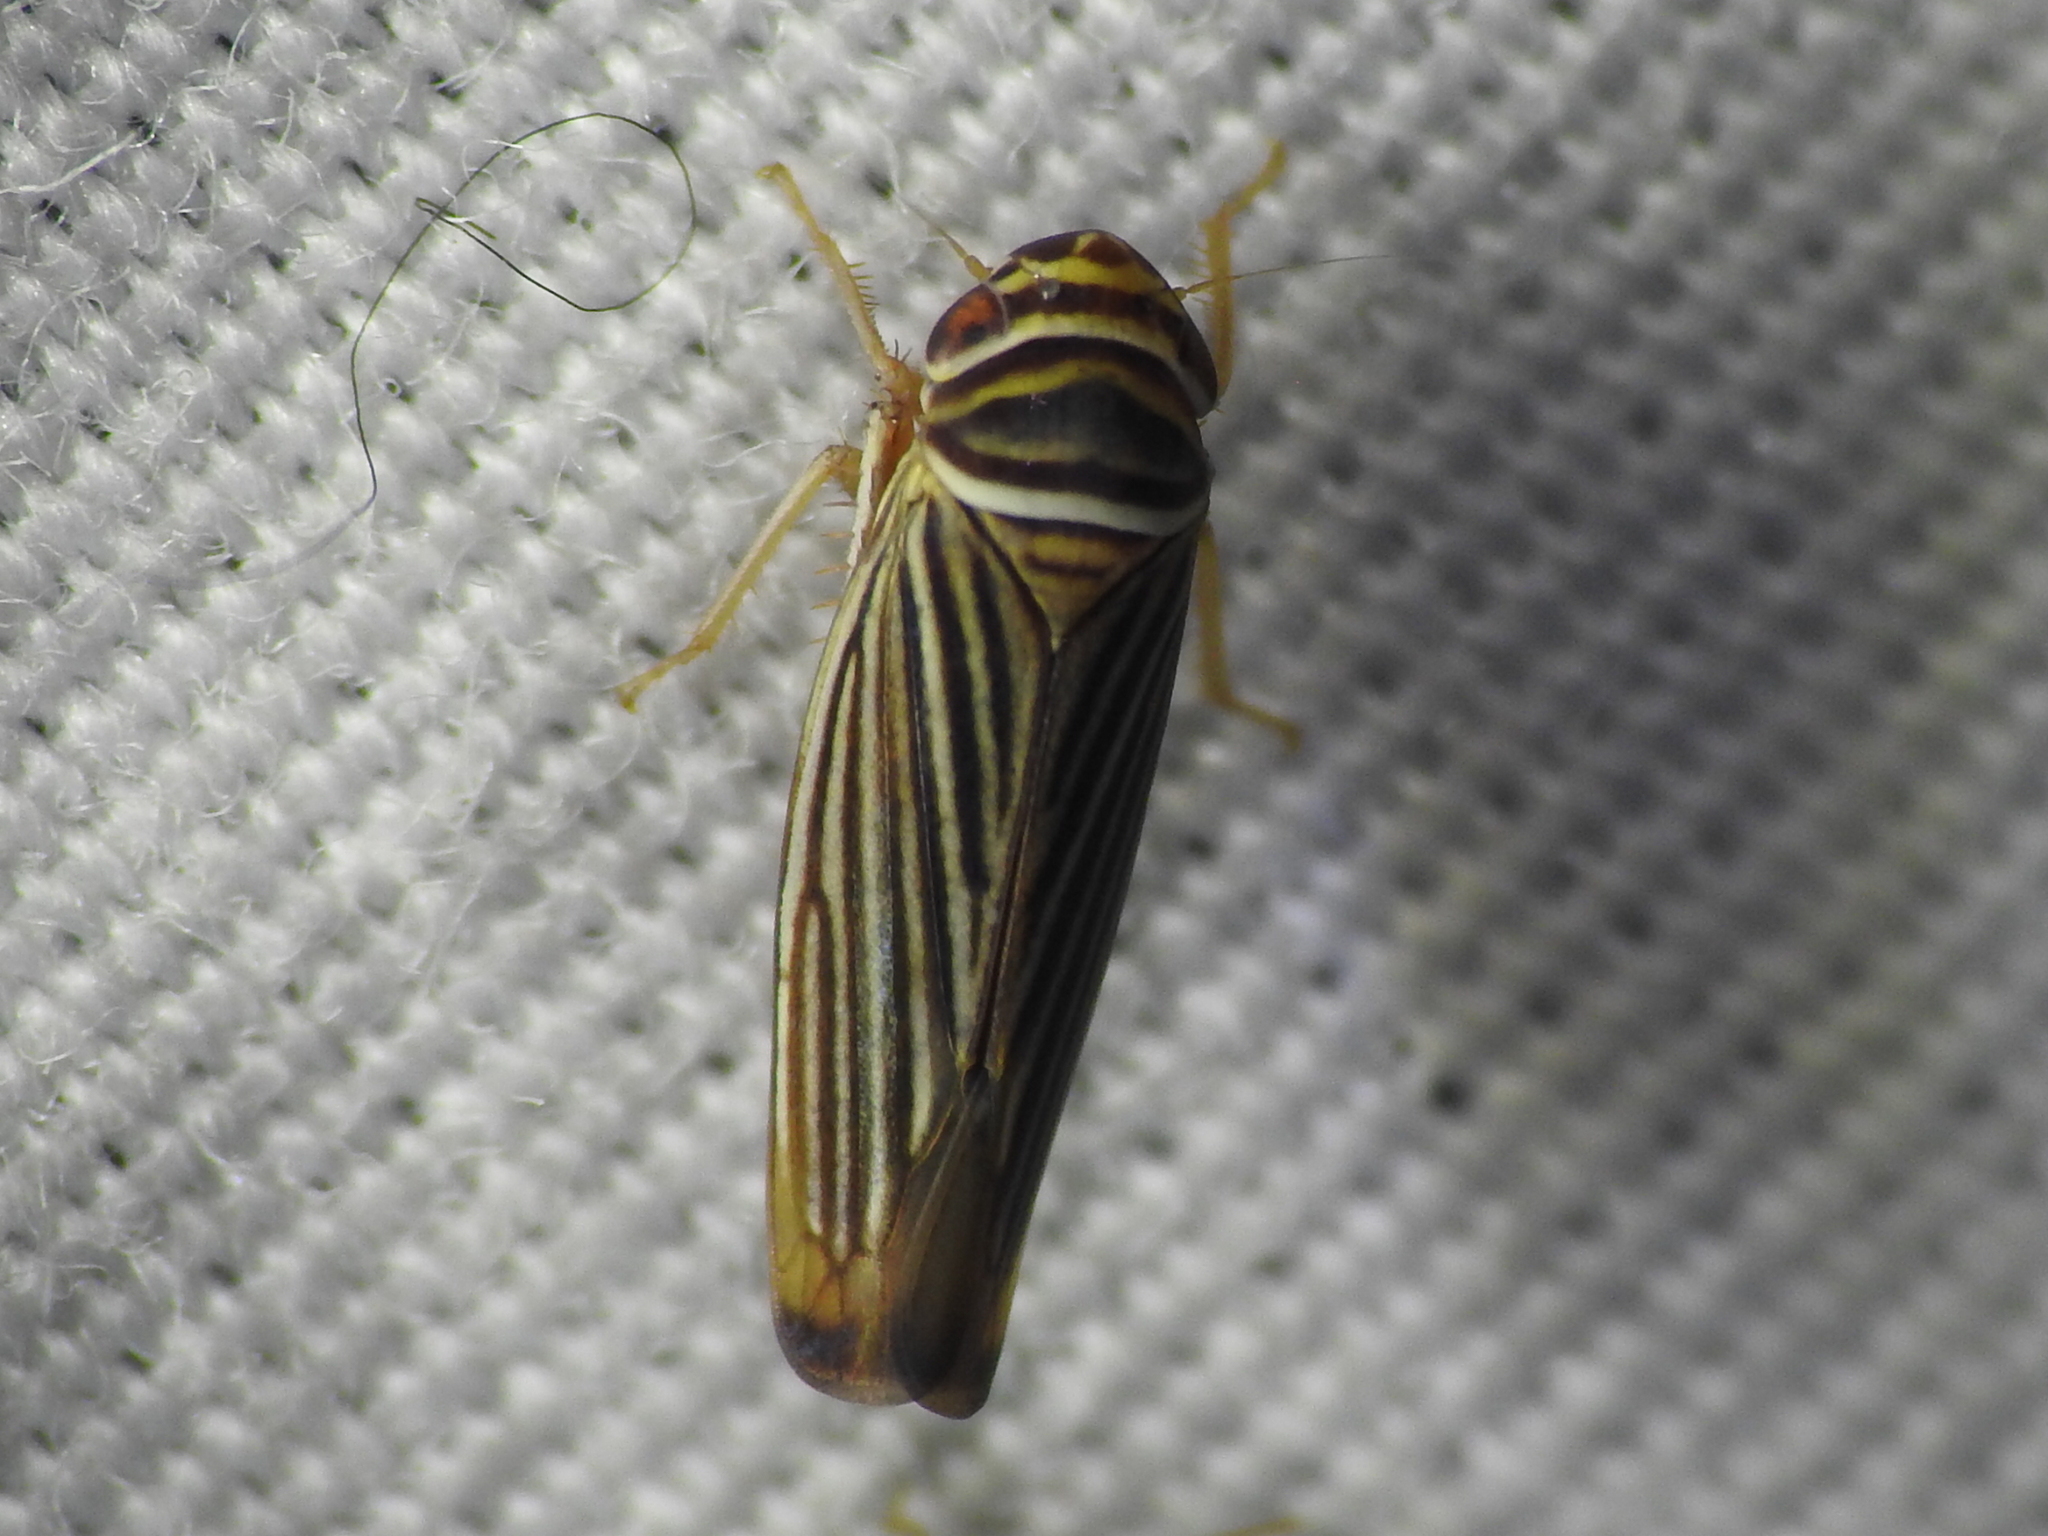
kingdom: Animalia
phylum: Arthropoda
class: Insecta
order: Hemiptera
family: Cicadellidae
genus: Tylozygus
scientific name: Tylozygus bifidus
